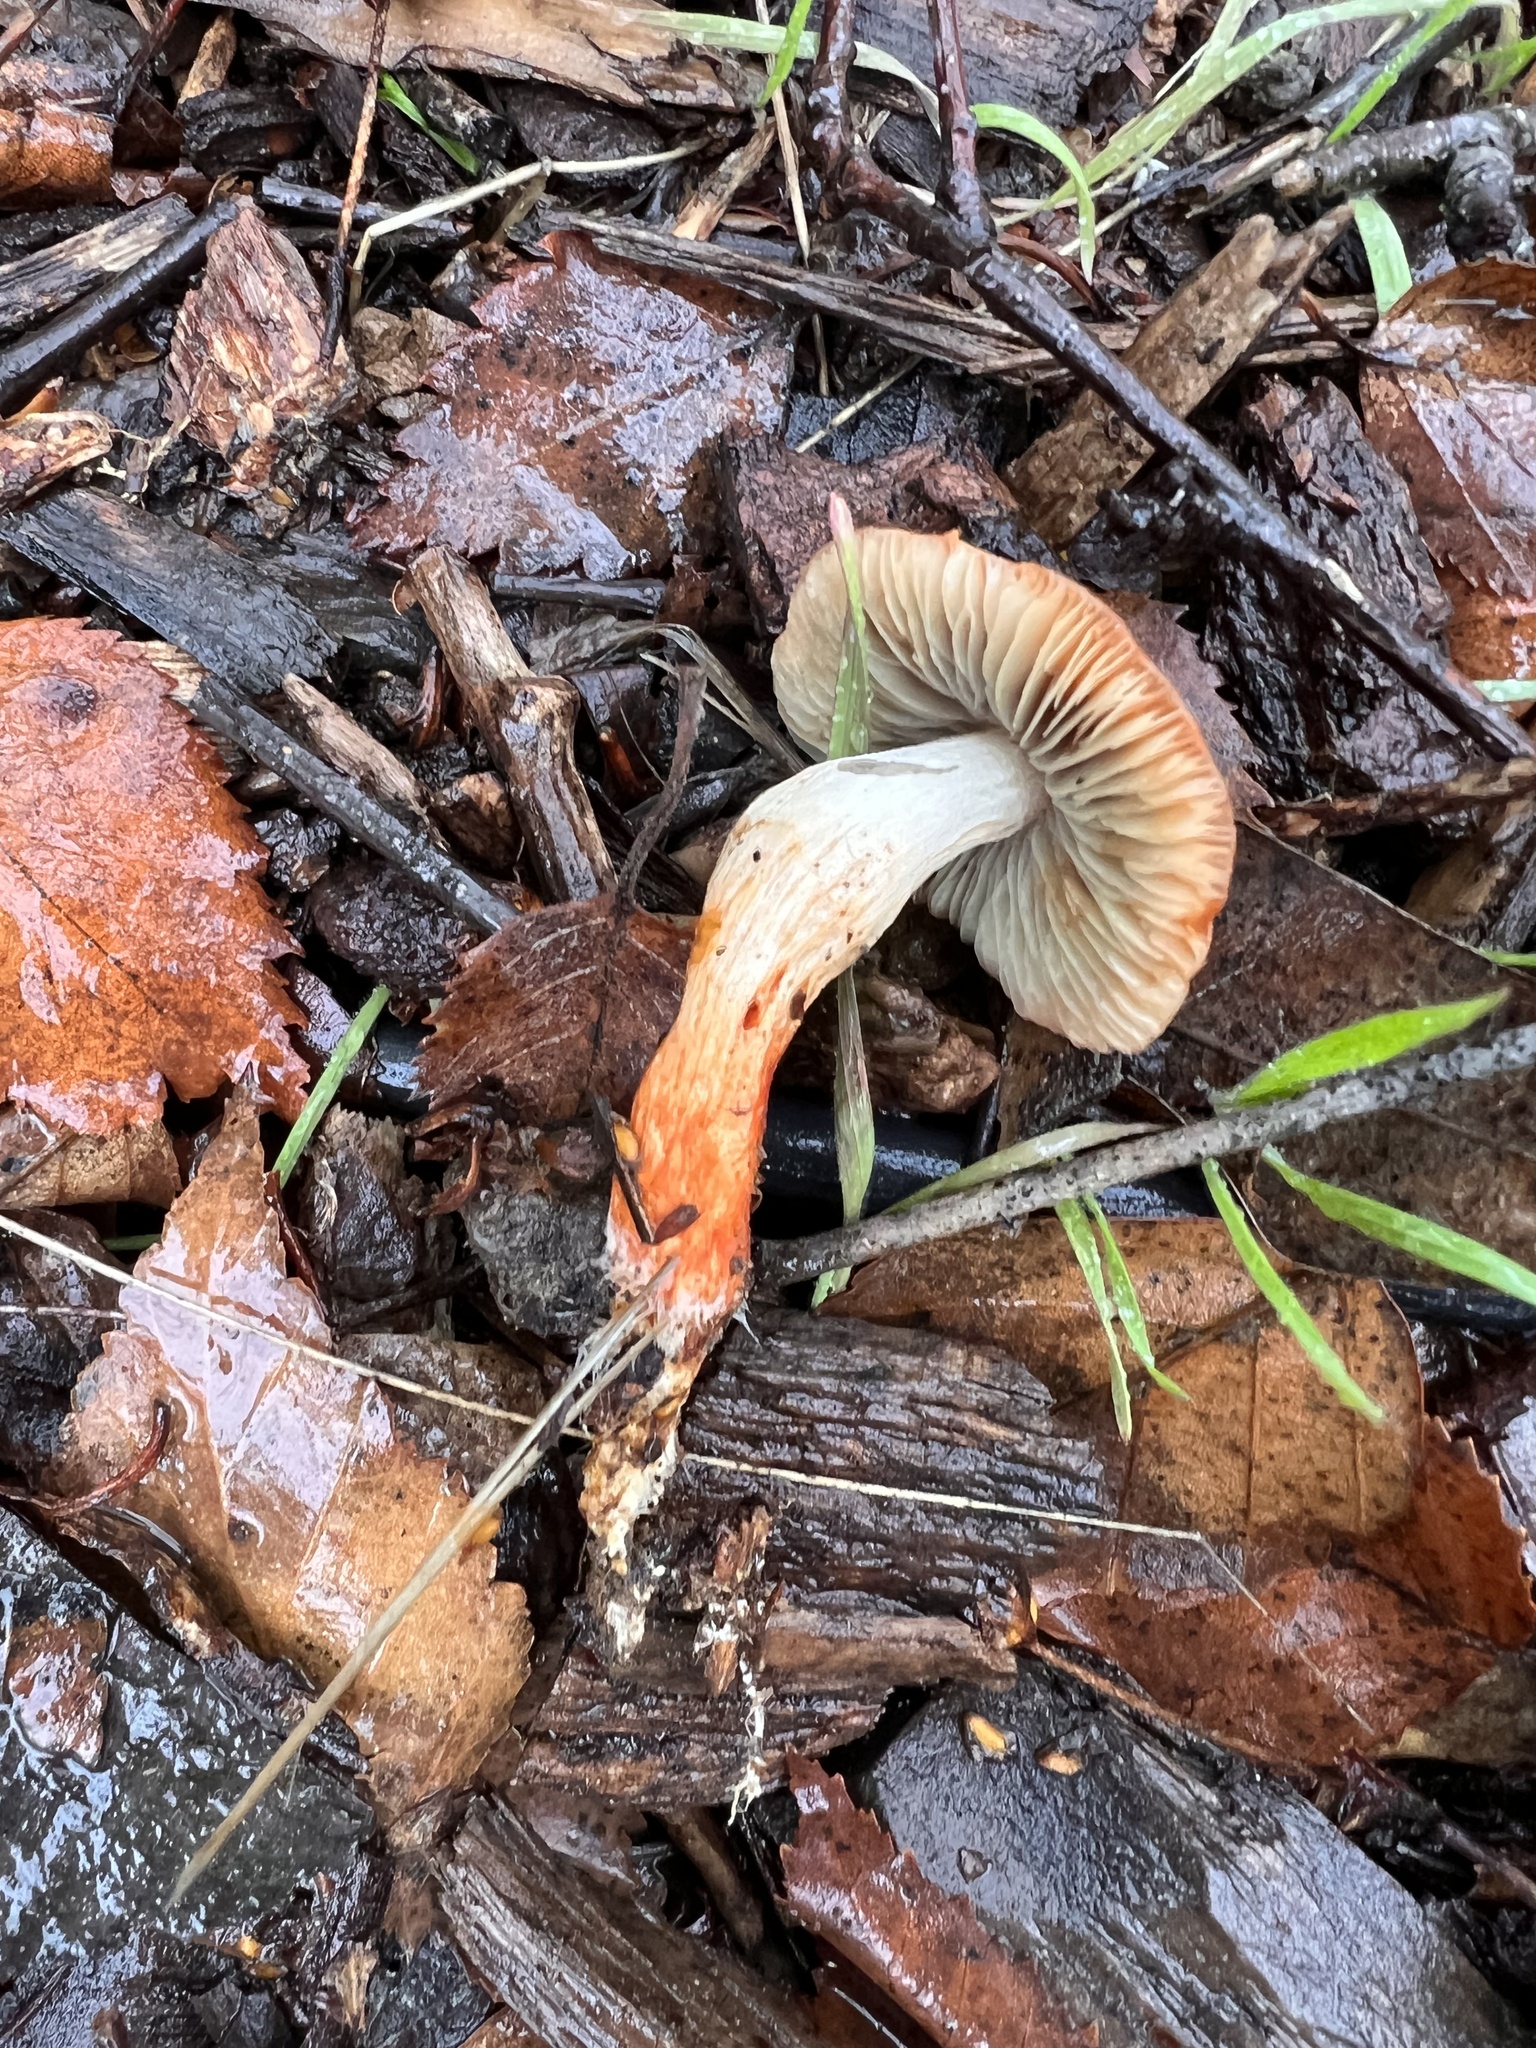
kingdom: Fungi
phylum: Basidiomycota
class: Agaricomycetes
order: Agaricales
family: Strophariaceae
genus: Leratiomyces
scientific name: Leratiomyces ceres
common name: Redlead roundhead
